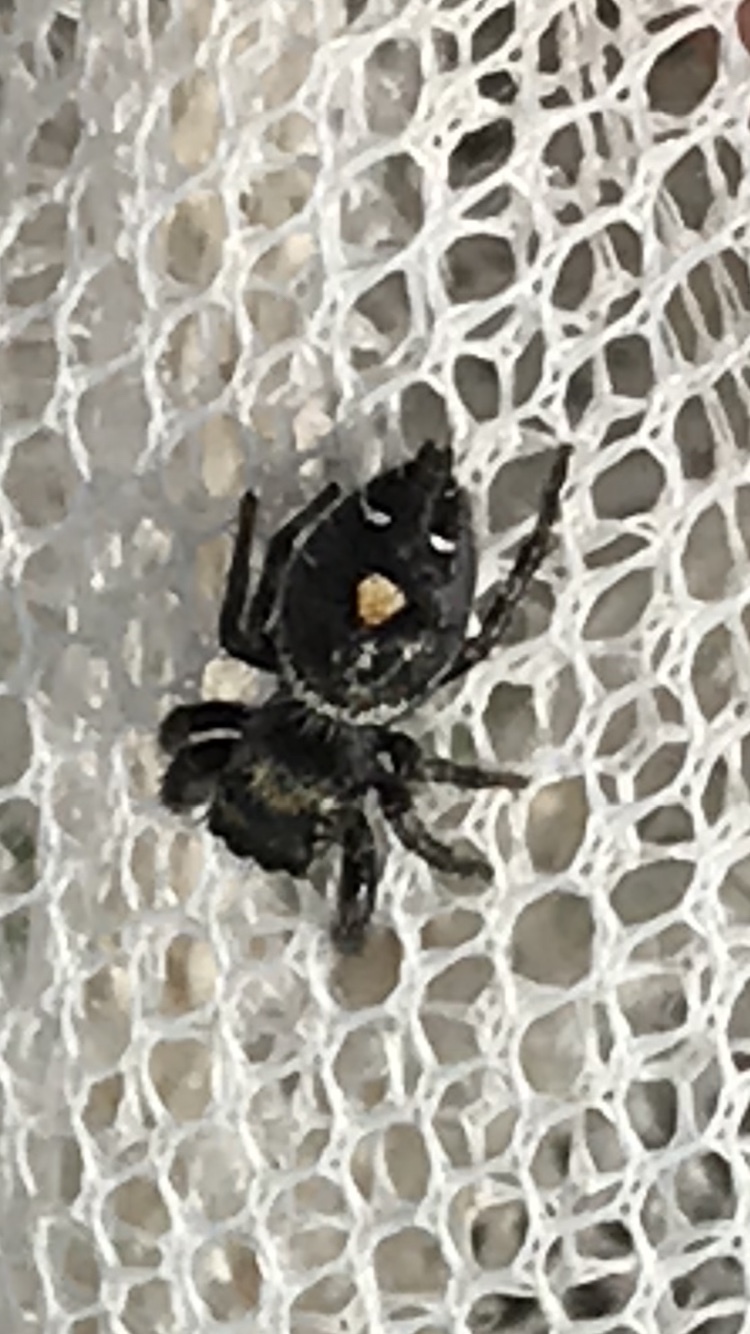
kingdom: Animalia
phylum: Arthropoda
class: Arachnida
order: Araneae
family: Salticidae
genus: Phidippus
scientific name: Phidippus audax
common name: Bold jumper
